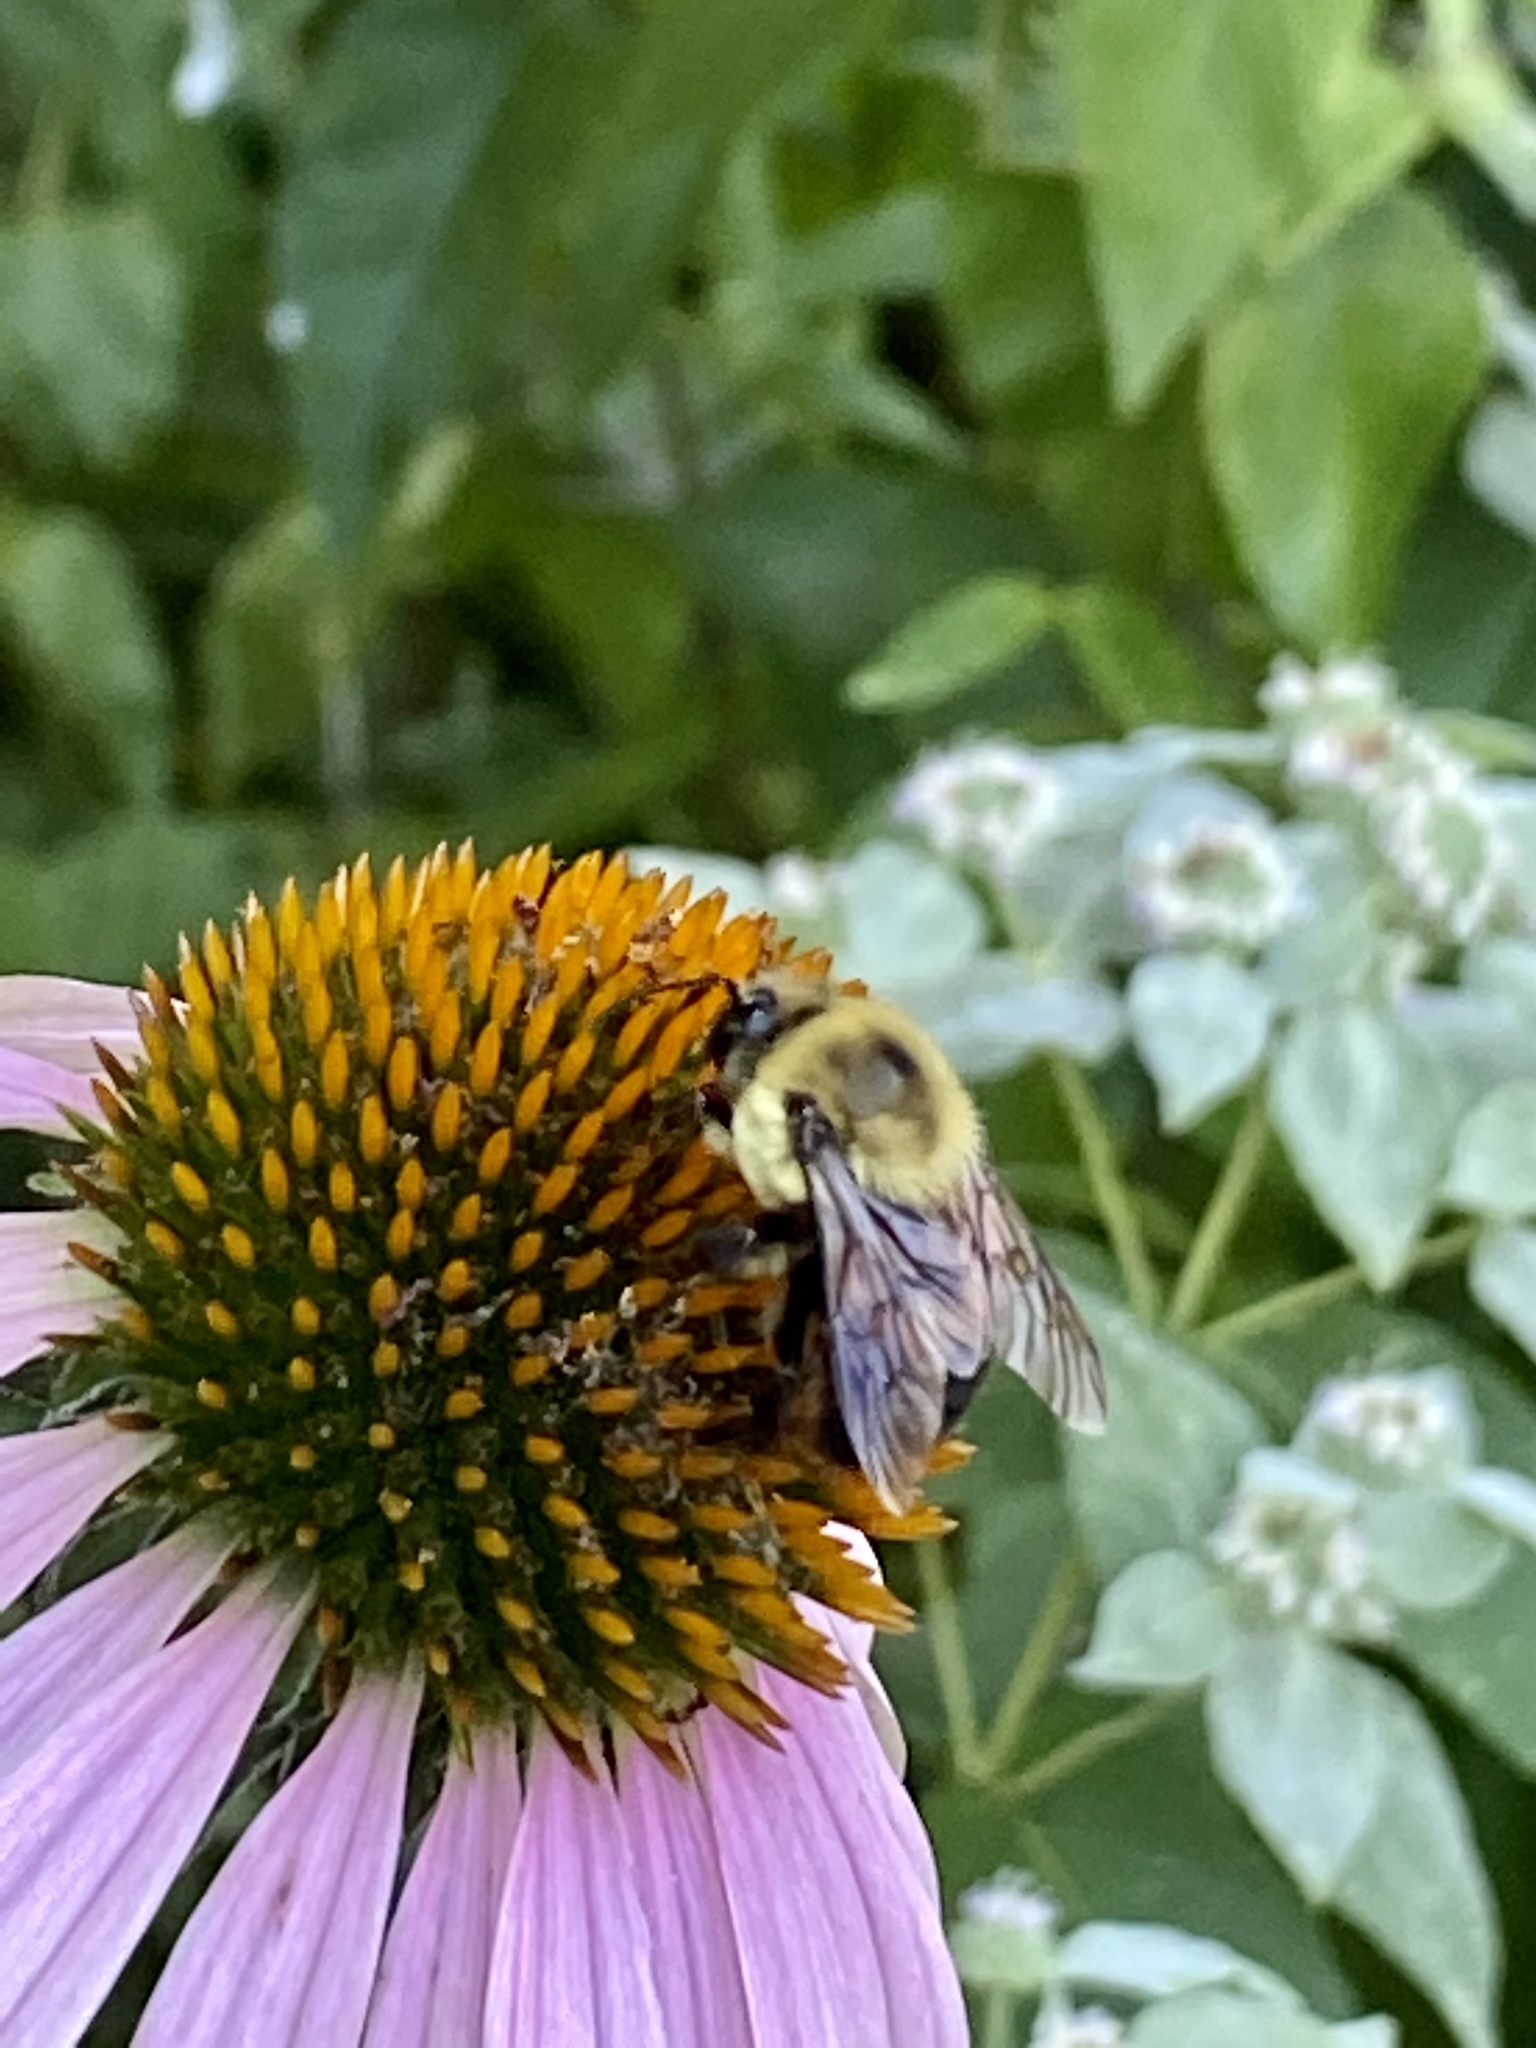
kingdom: Animalia
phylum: Arthropoda
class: Insecta
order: Hymenoptera
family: Apidae
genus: Bombus
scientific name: Bombus griseocollis
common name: Brown-belted bumble bee
